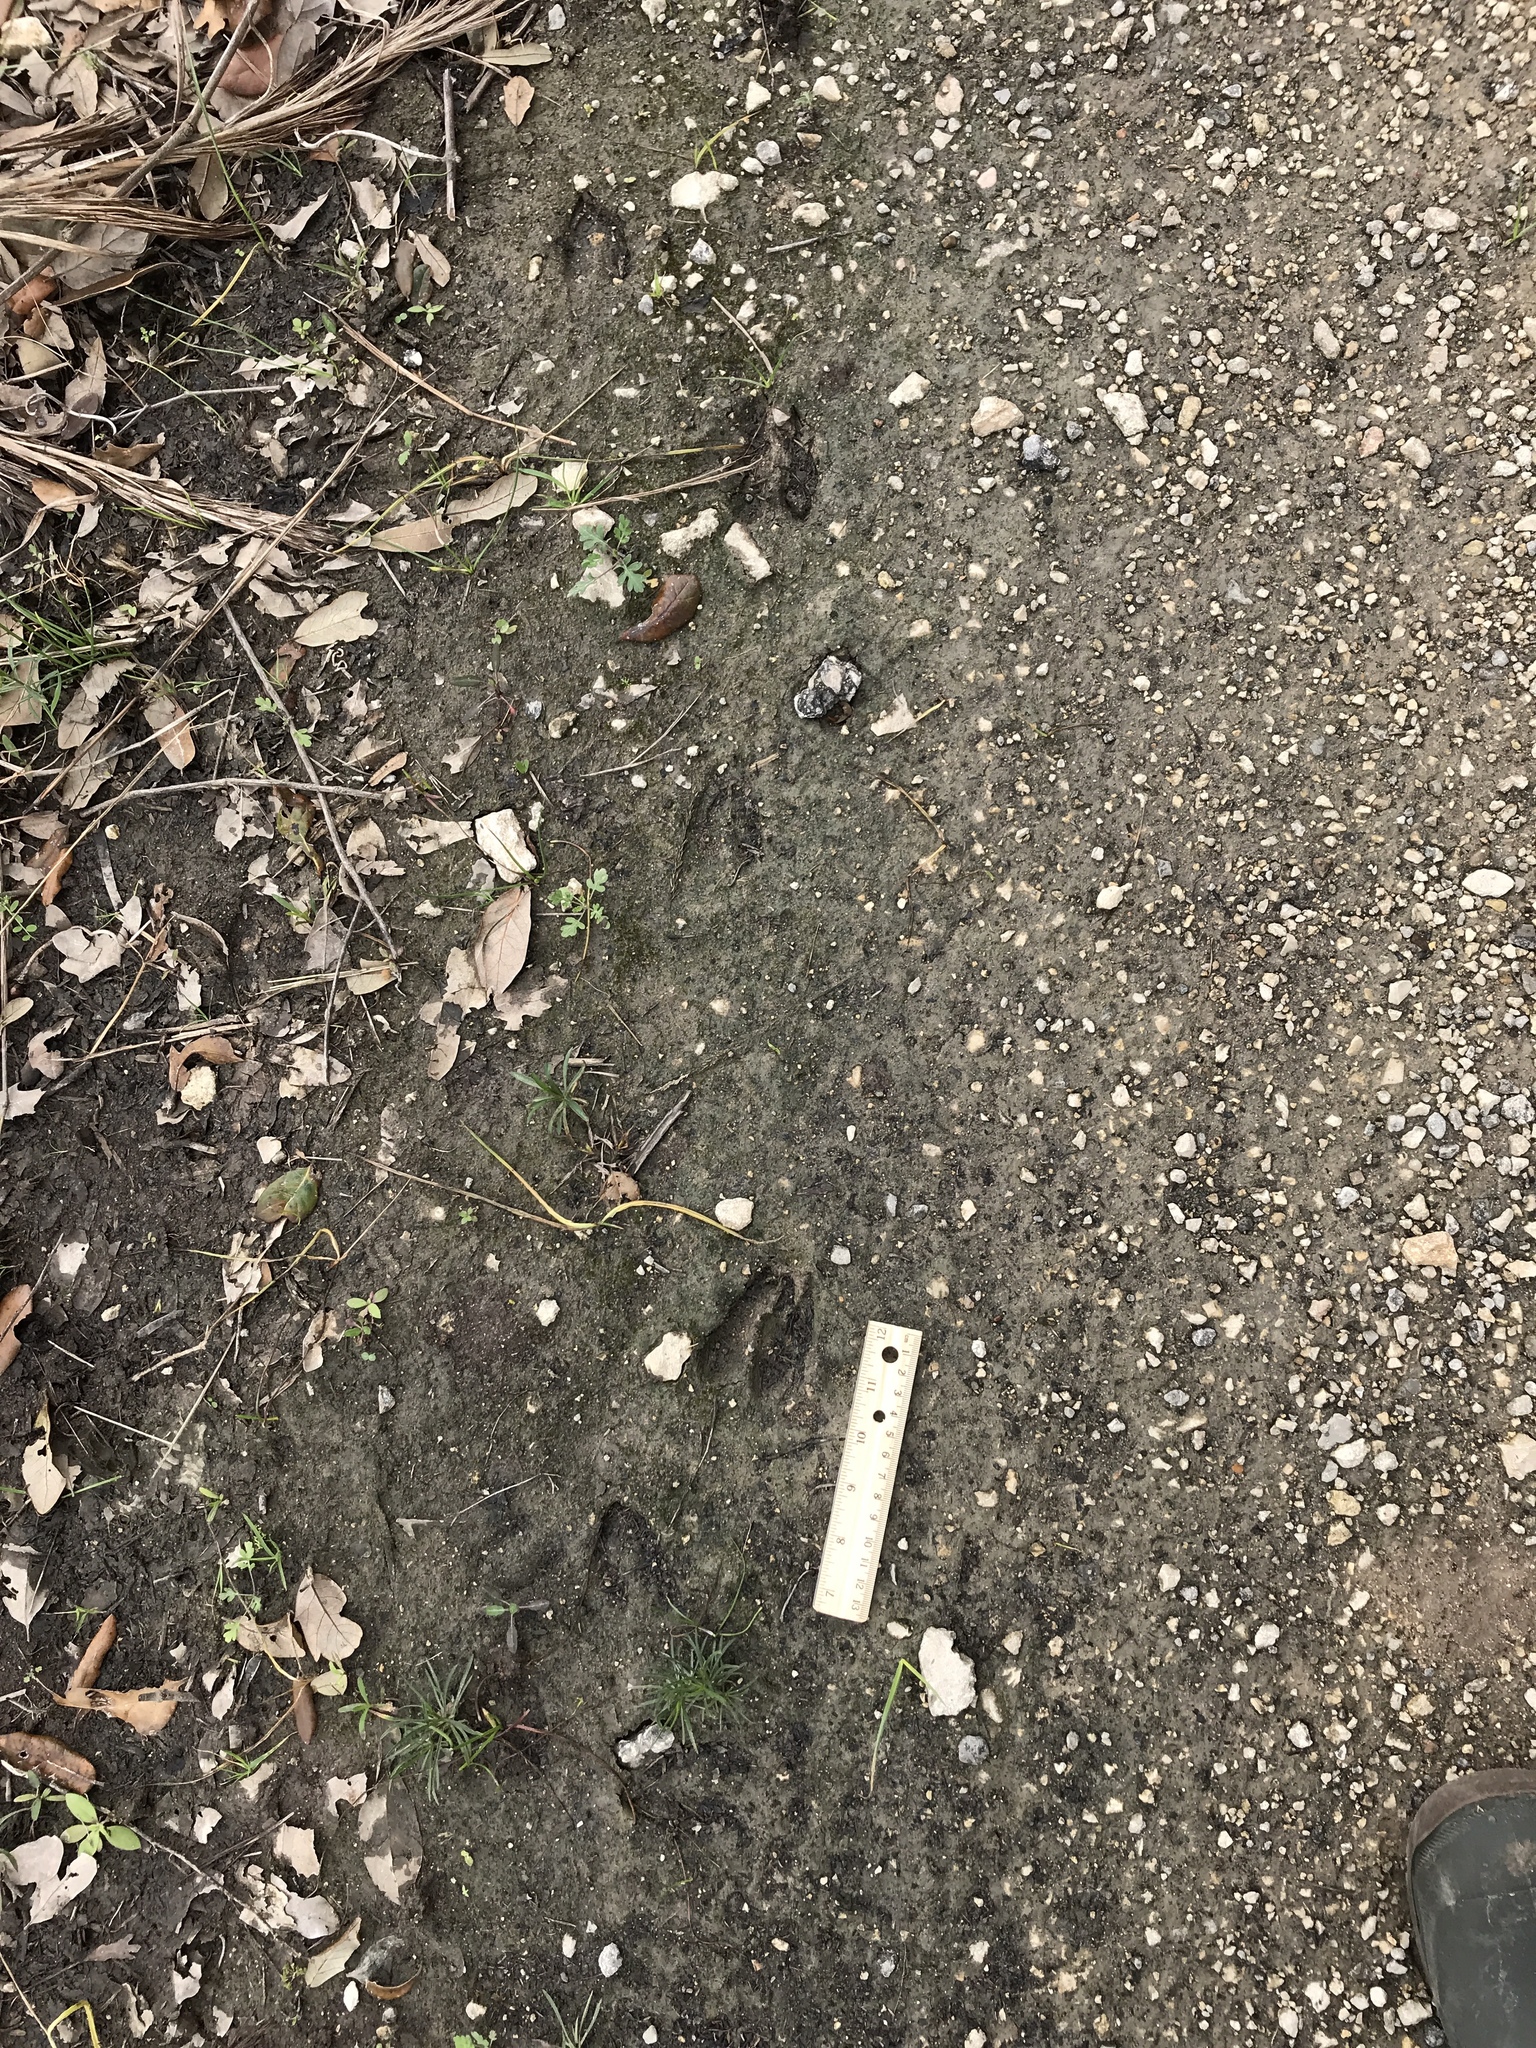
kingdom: Animalia
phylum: Chordata
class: Mammalia
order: Artiodactyla
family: Cervidae
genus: Odocoileus
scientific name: Odocoileus virginianus
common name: White-tailed deer
